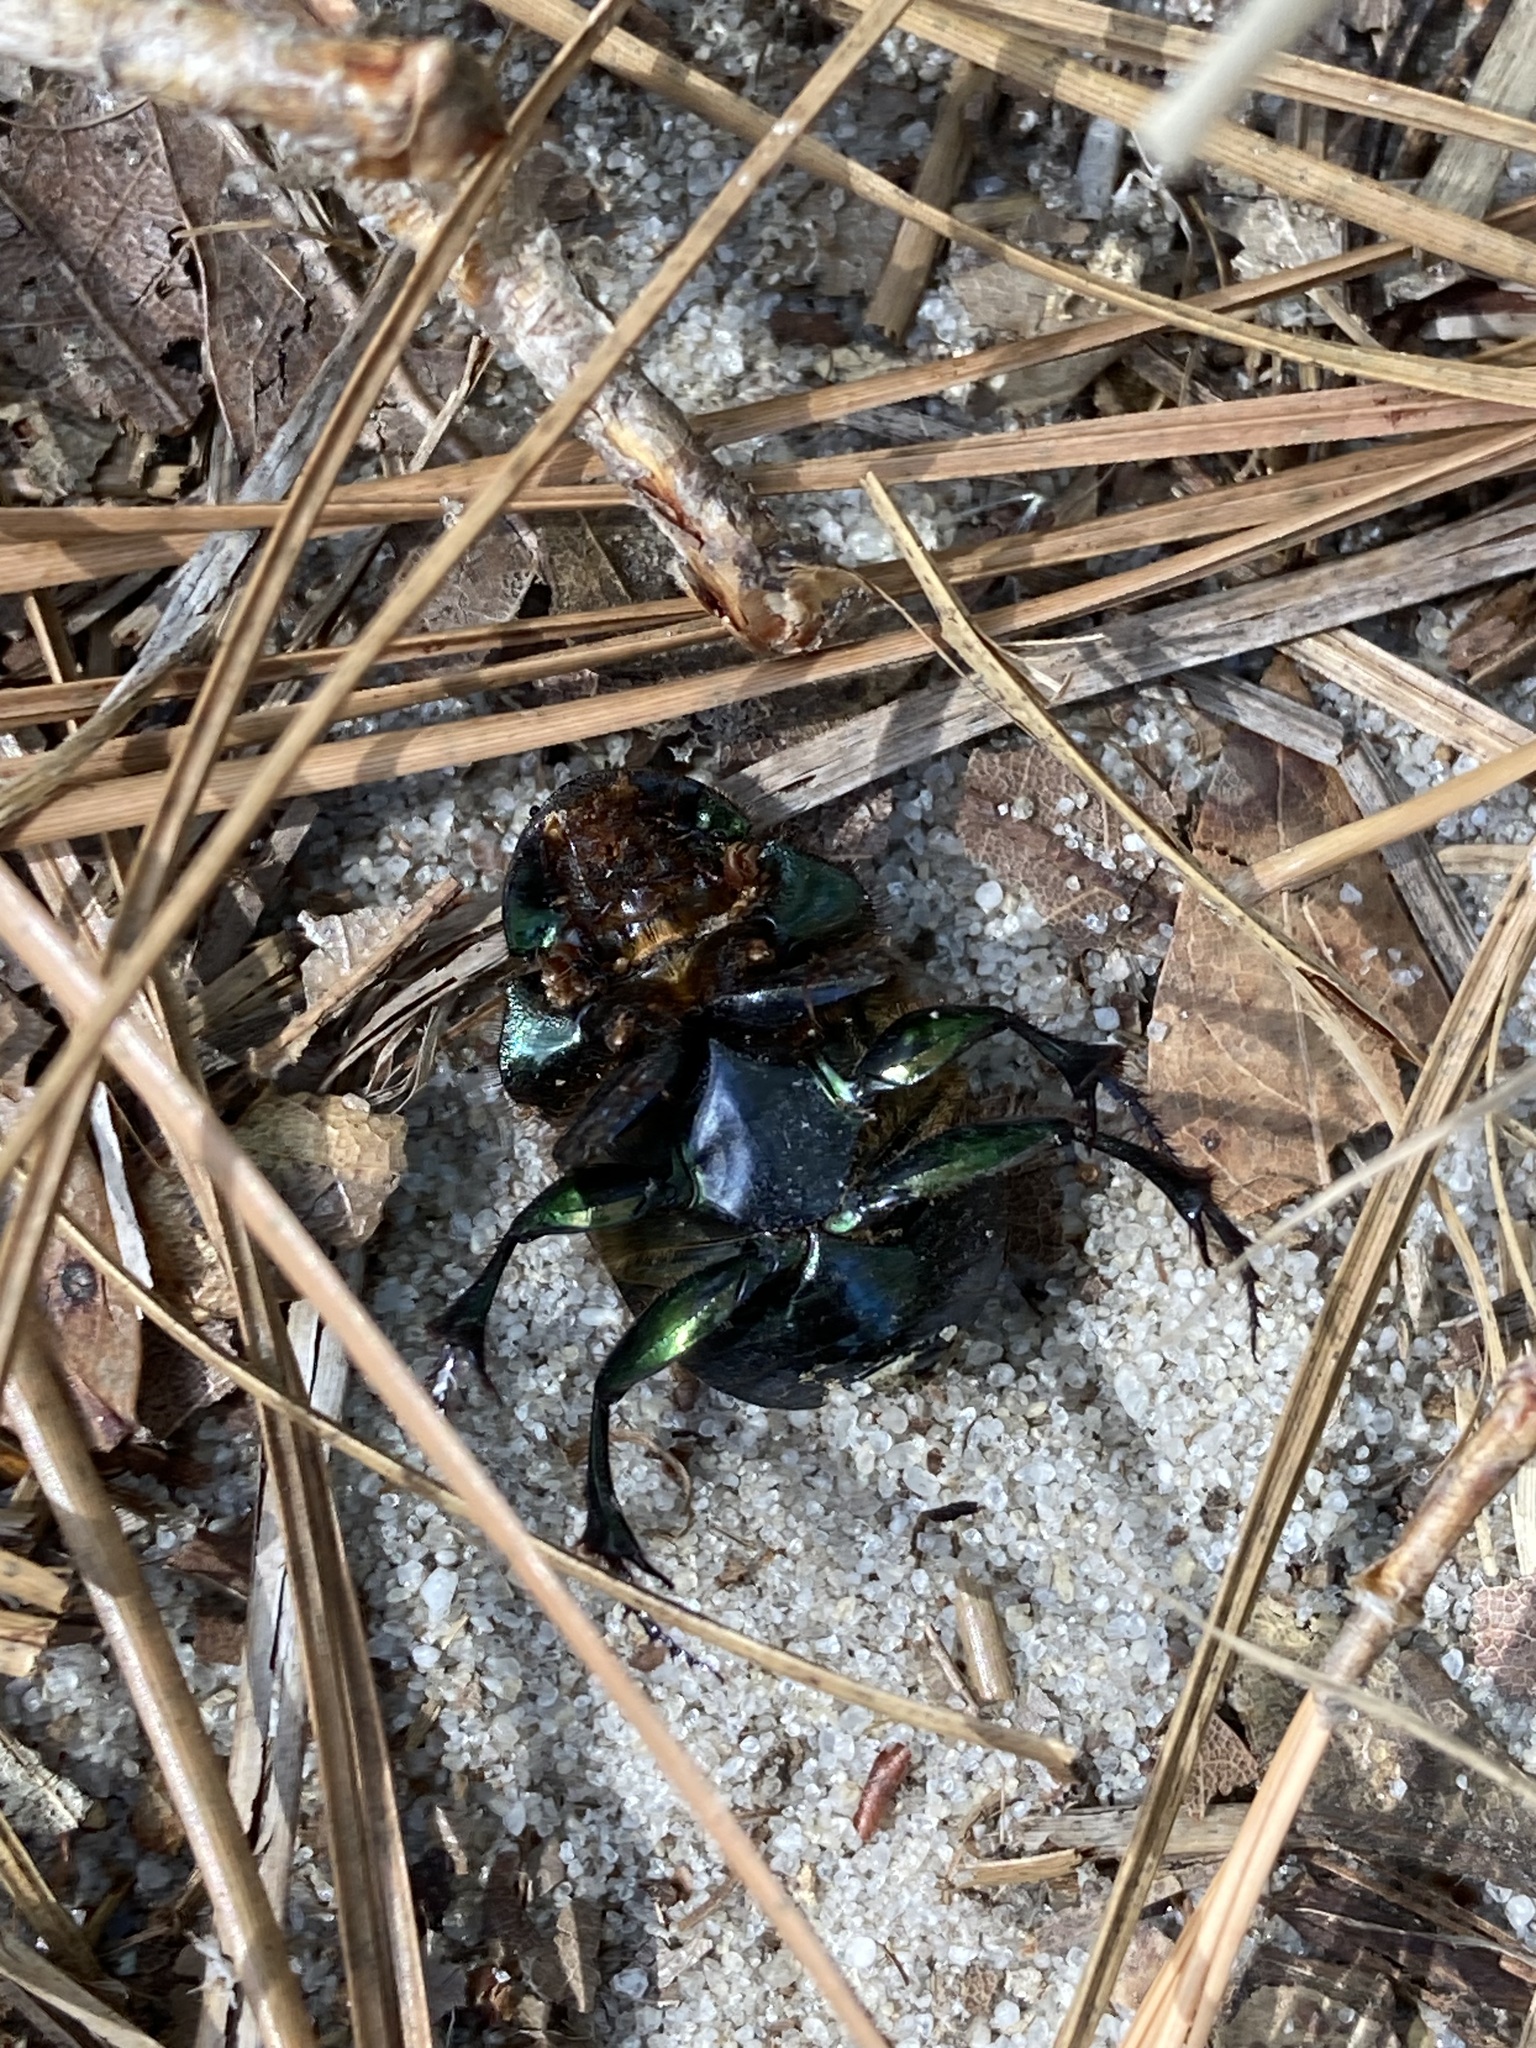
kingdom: Animalia
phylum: Arthropoda
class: Insecta
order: Coleoptera
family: Scarabaeidae
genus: Phanaeus
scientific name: Phanaeus igneus
